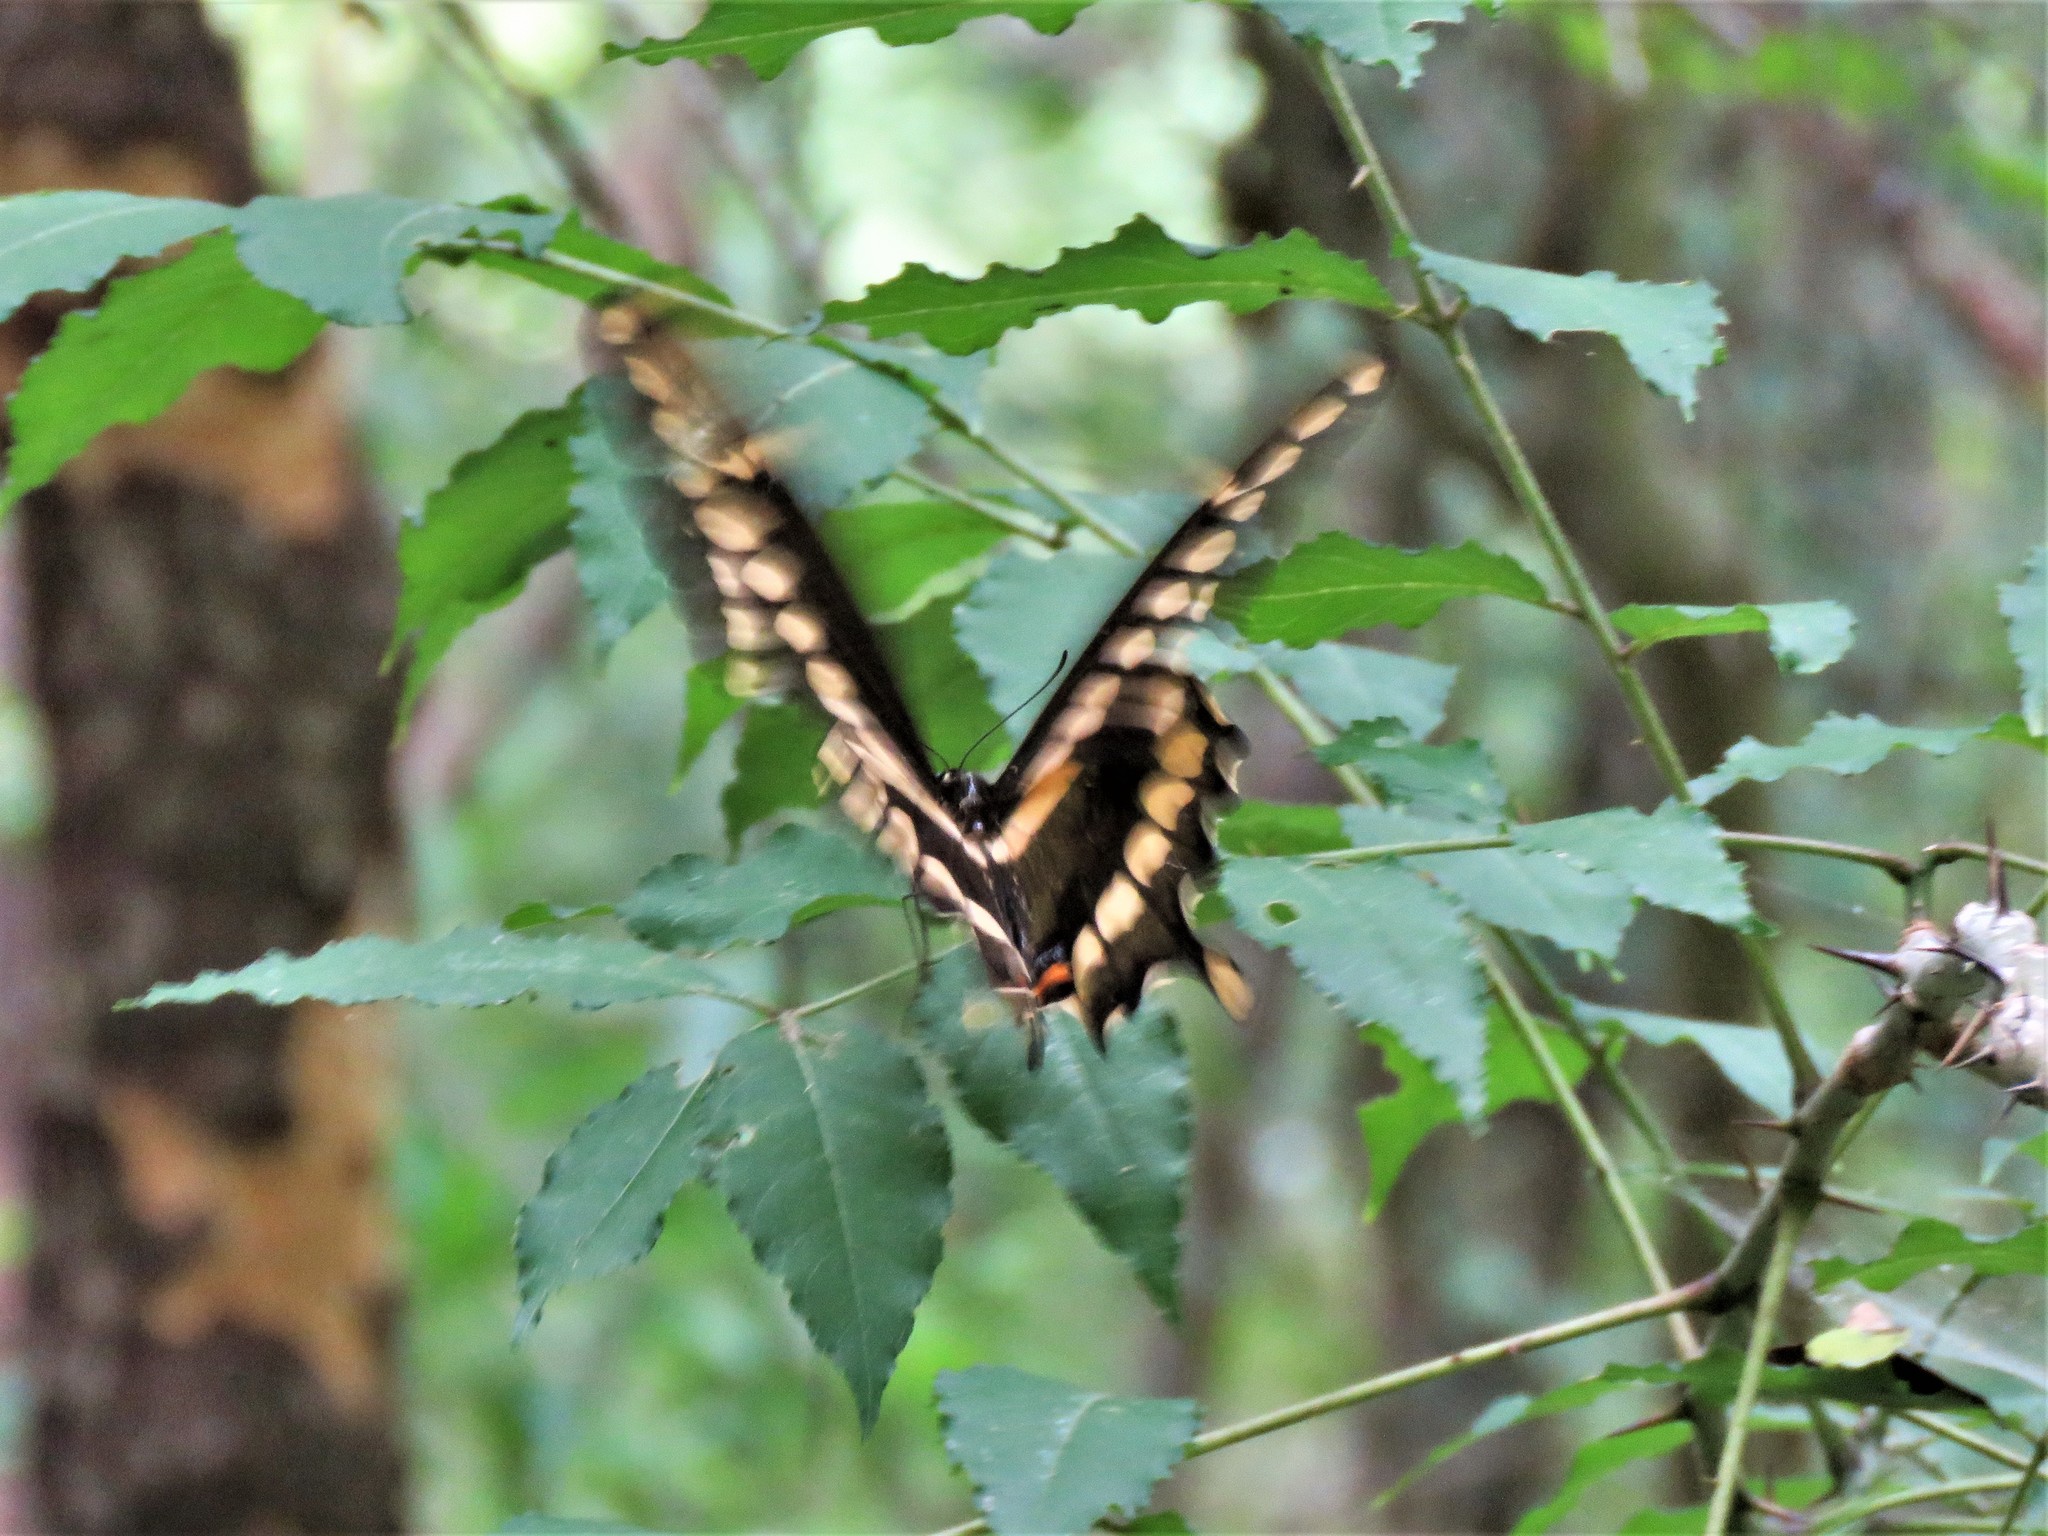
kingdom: Animalia
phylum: Arthropoda
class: Insecta
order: Lepidoptera
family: Papilionidae
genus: Papilio
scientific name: Papilio cresphontes
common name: Giant swallowtail
